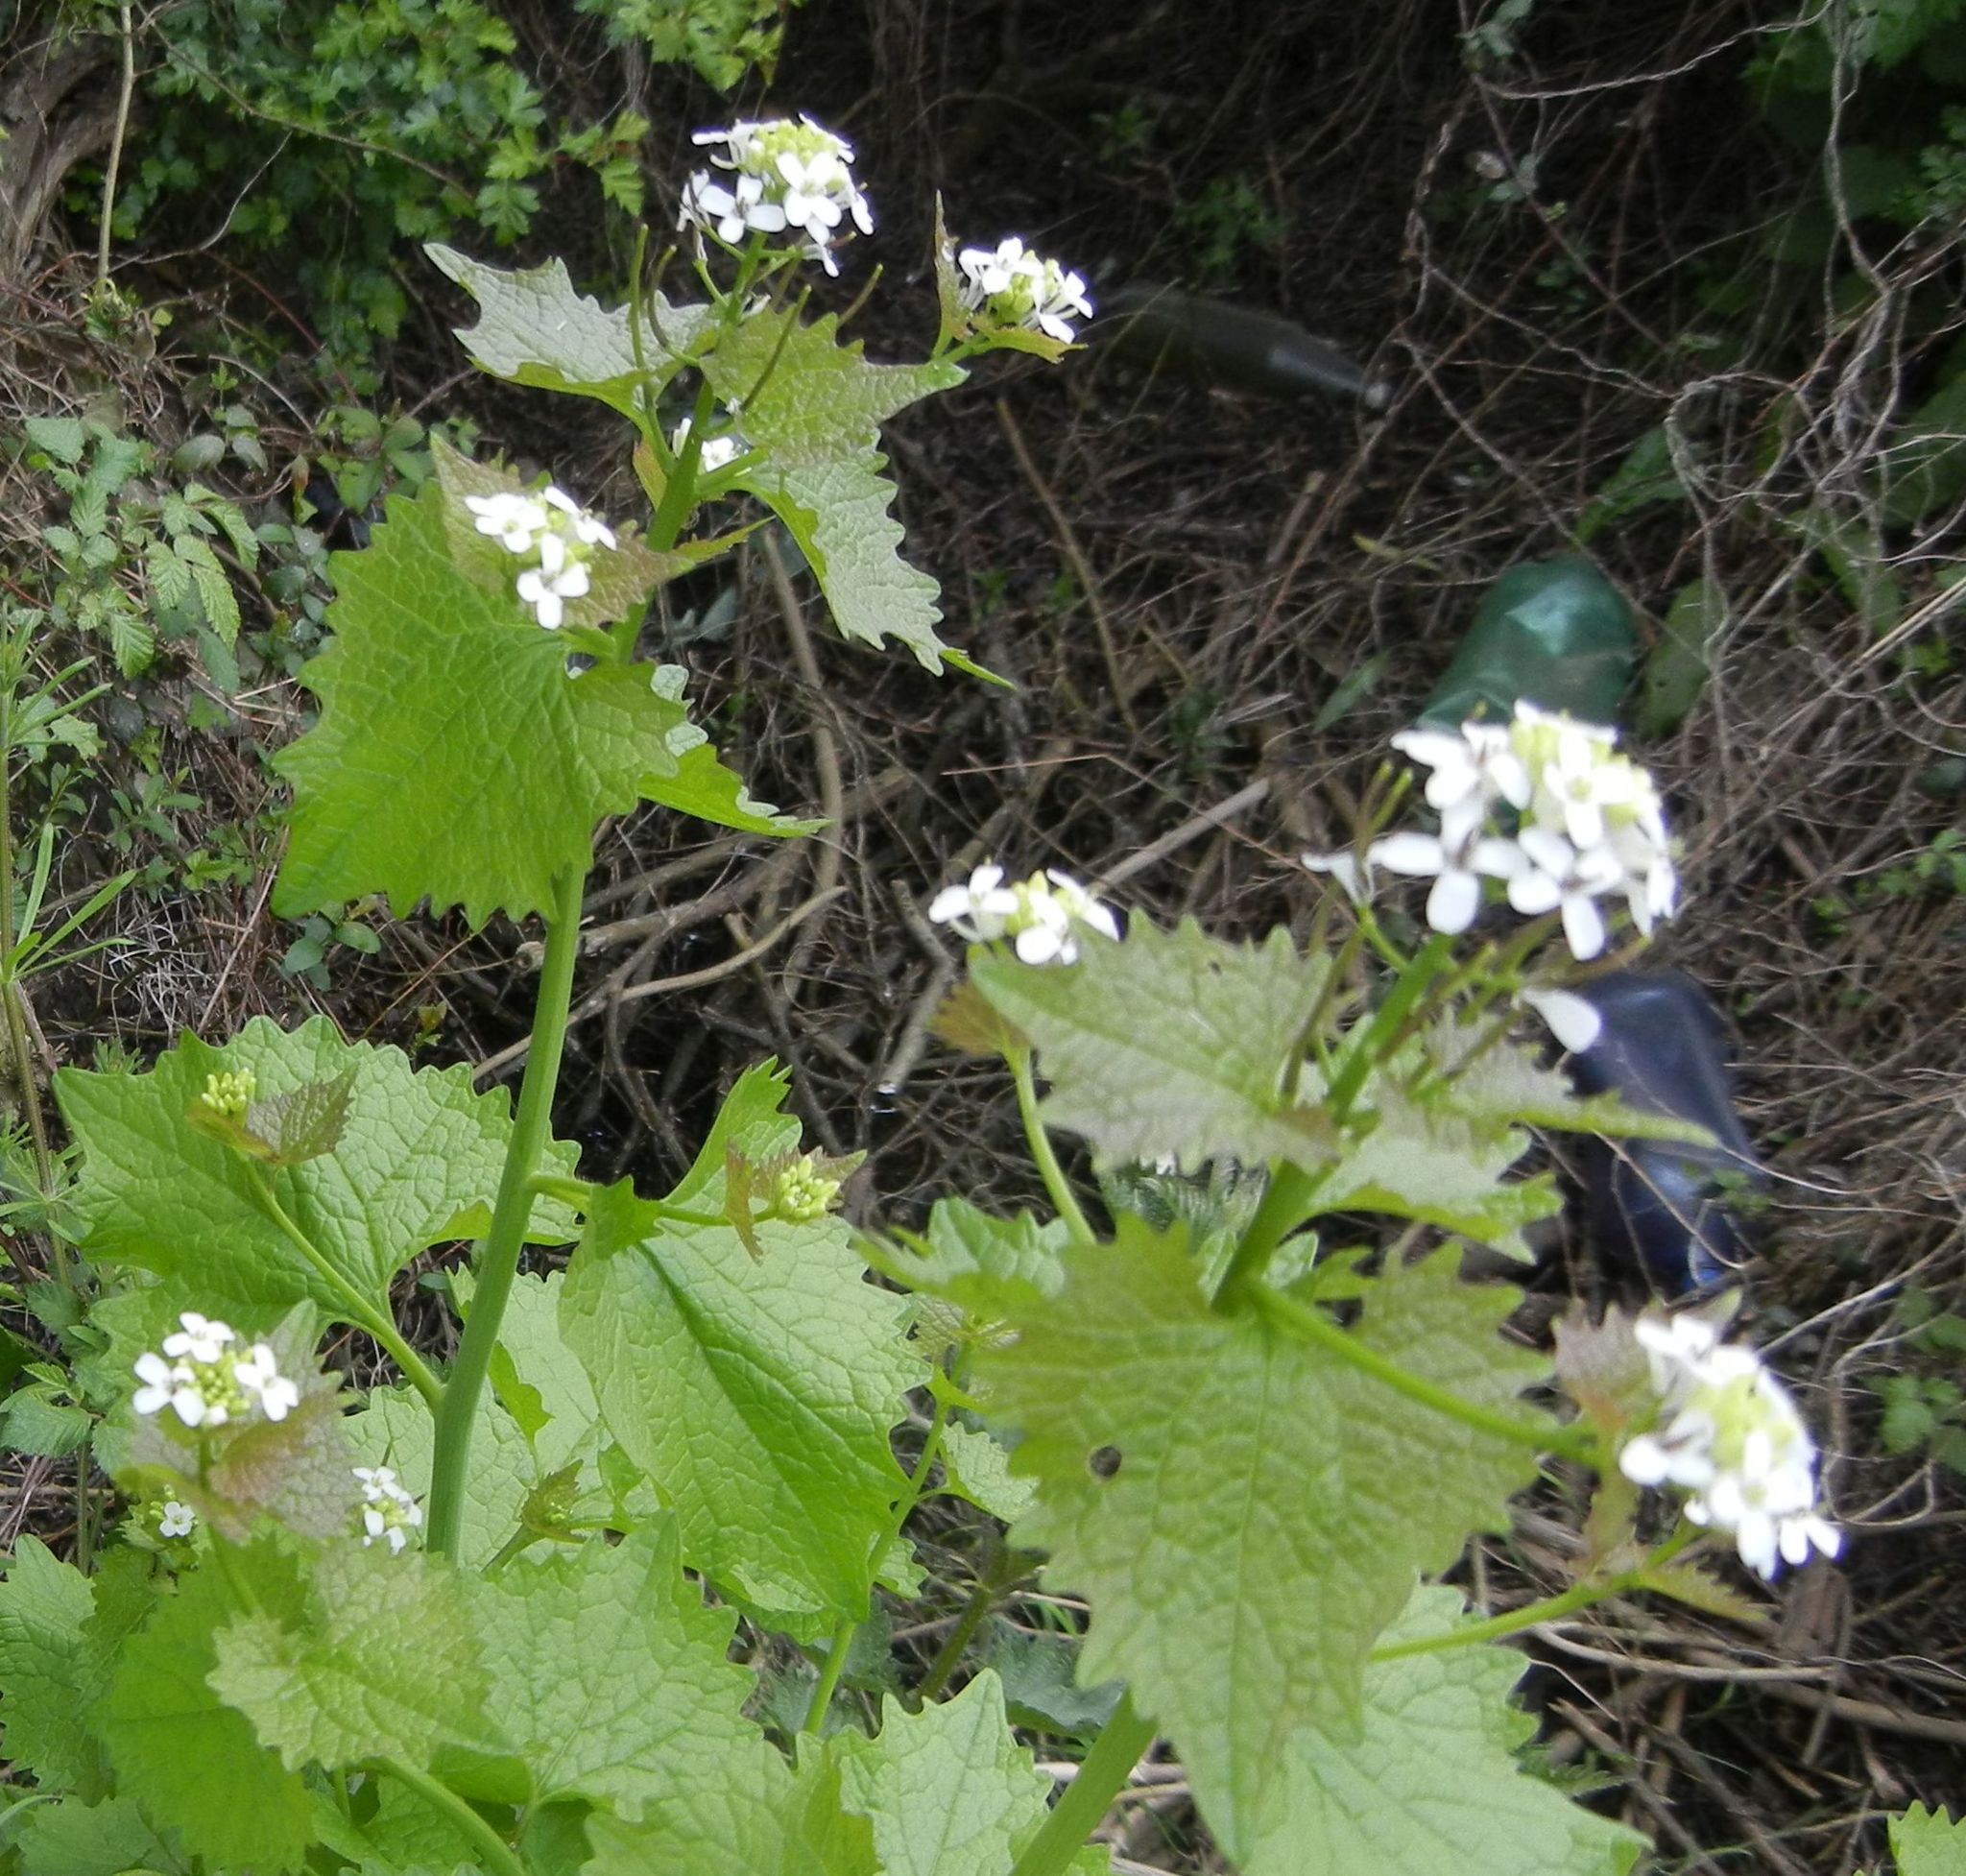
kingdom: Plantae
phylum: Tracheophyta
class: Magnoliopsida
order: Brassicales
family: Brassicaceae
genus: Alliaria
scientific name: Alliaria petiolata
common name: Garlic mustard
